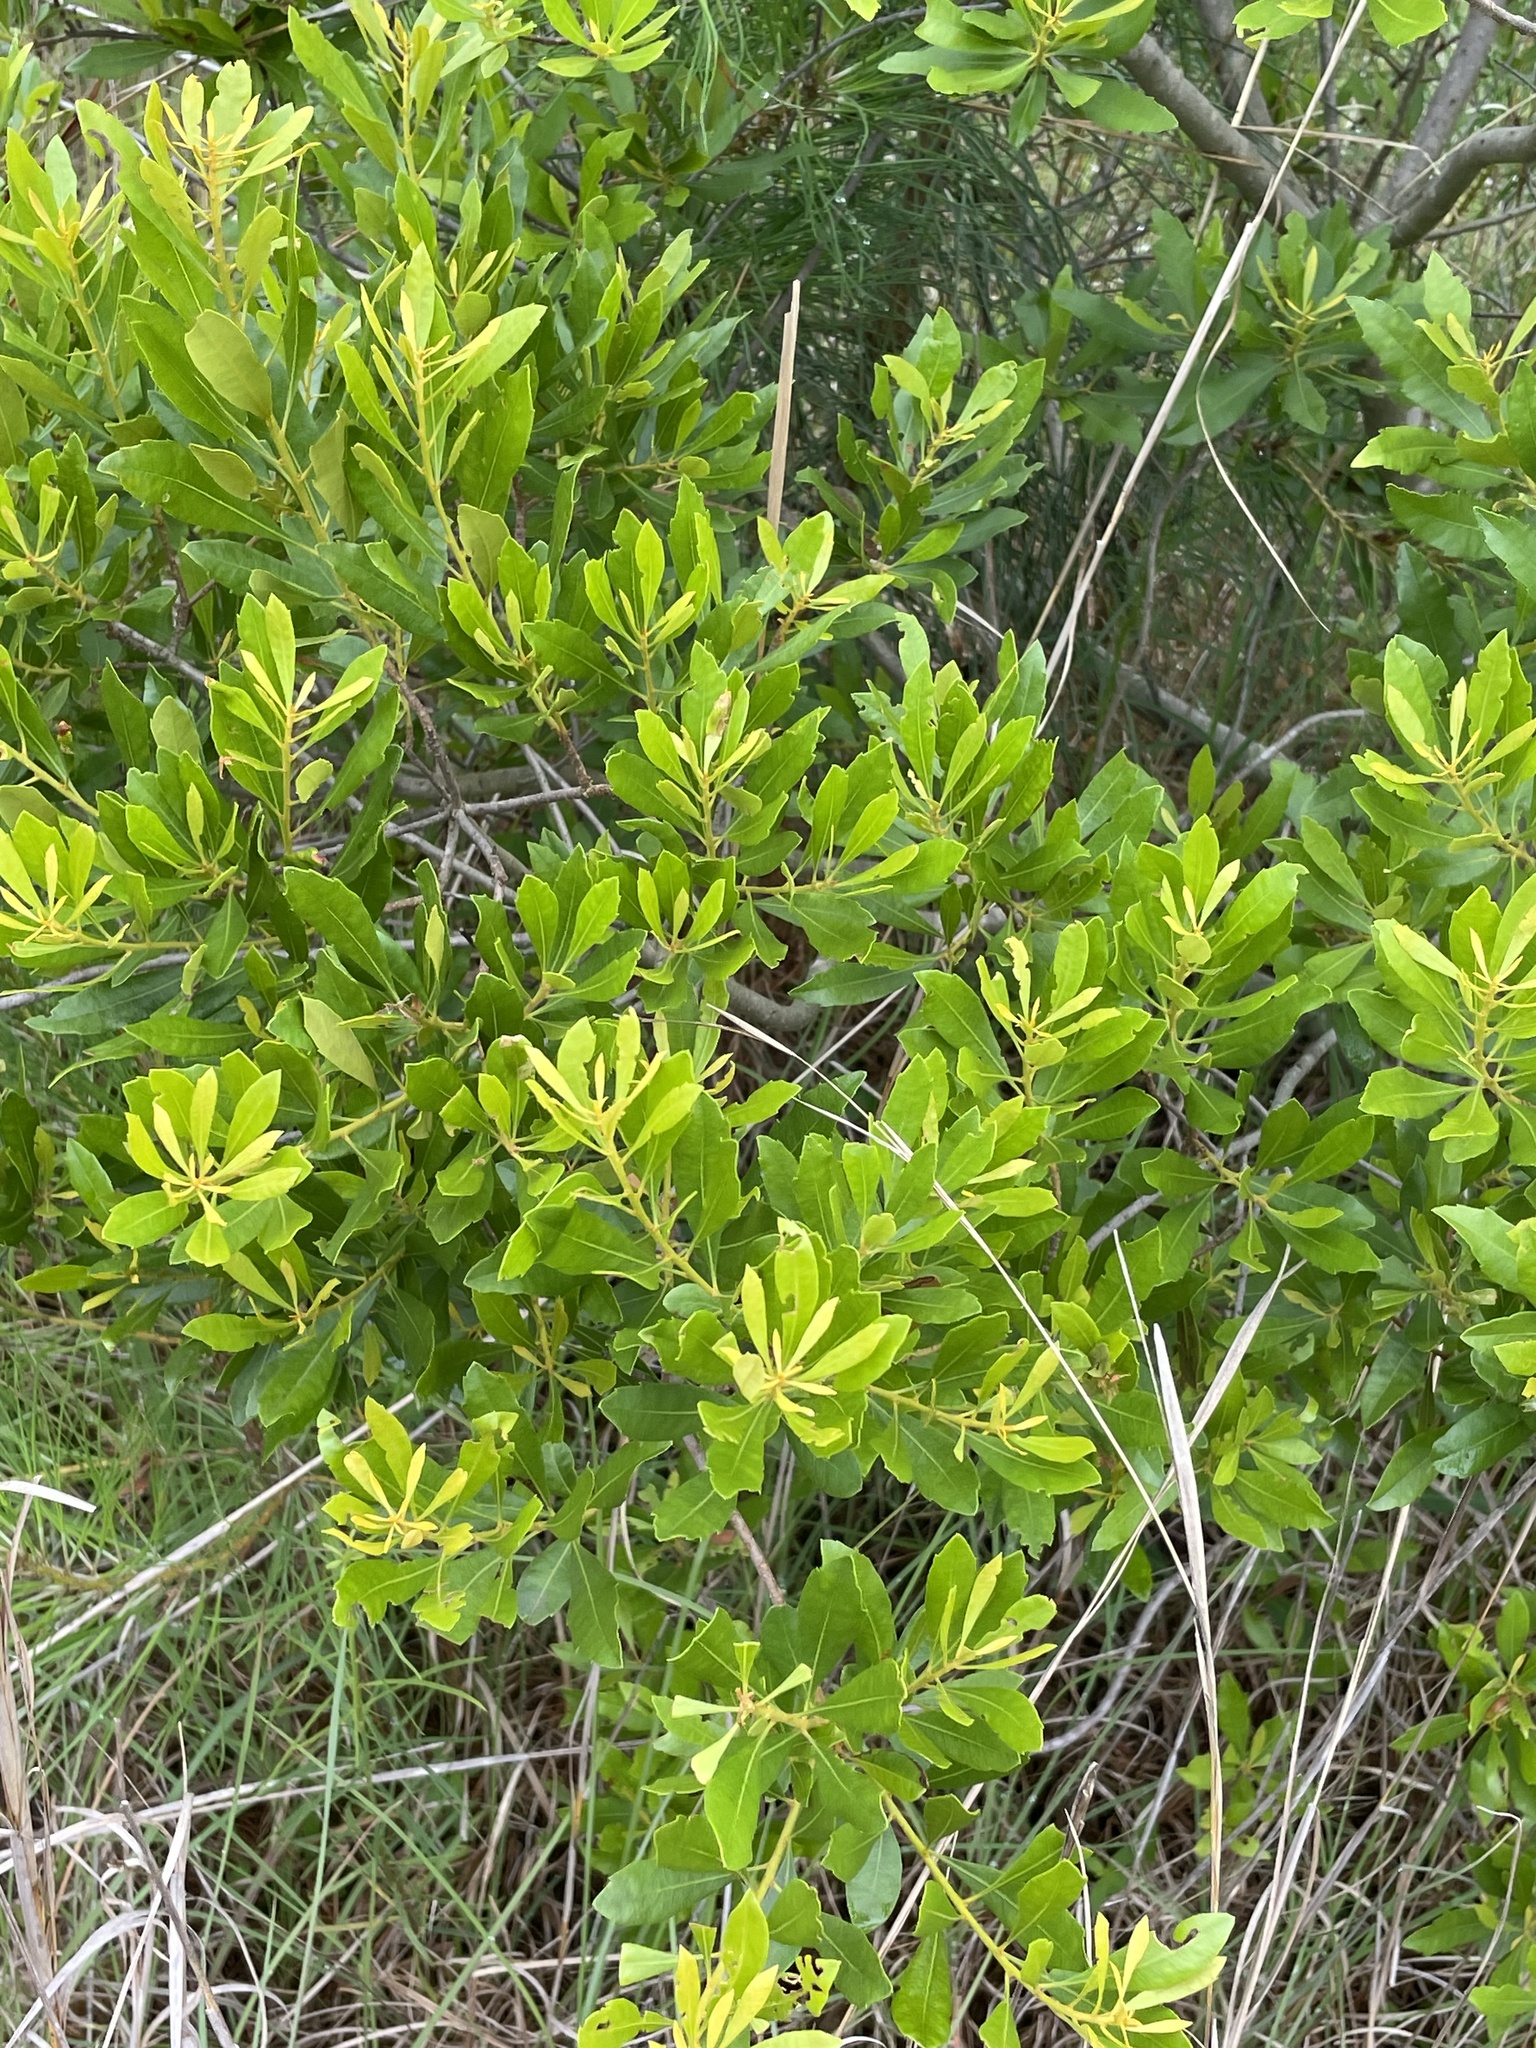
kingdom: Plantae
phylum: Tracheophyta
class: Magnoliopsida
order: Fagales
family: Myricaceae
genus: Morella
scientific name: Morella cerifera
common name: Wax myrtle
